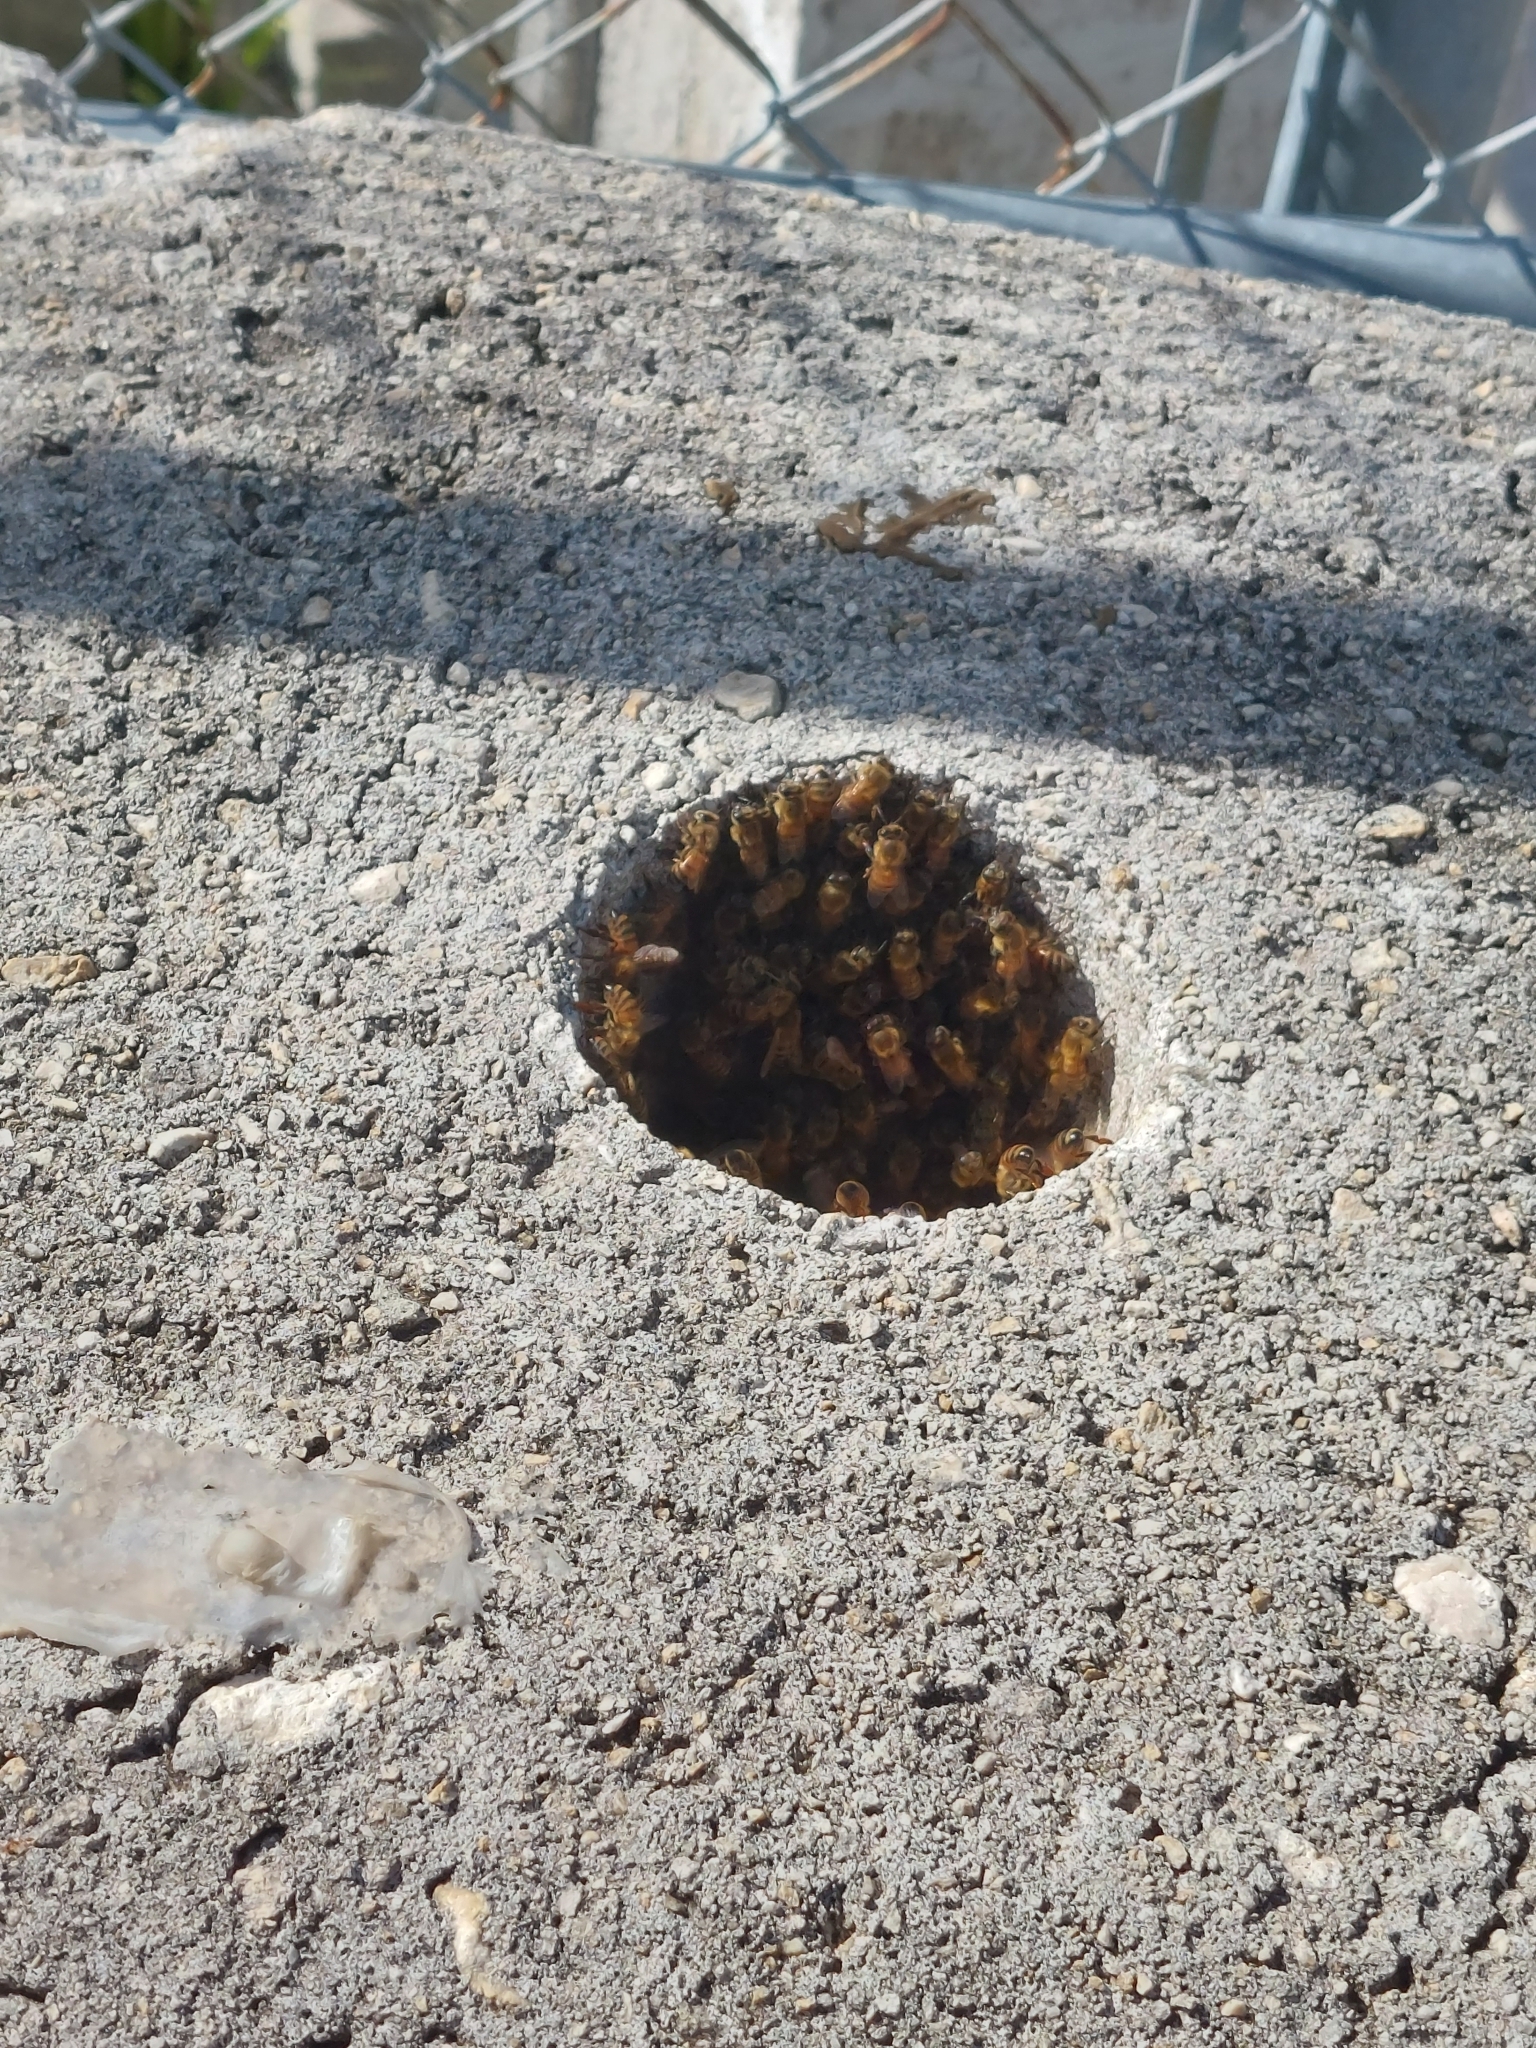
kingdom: Animalia
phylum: Arthropoda
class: Insecta
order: Hymenoptera
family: Apidae
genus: Apis
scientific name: Apis mellifera
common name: Honey bee
